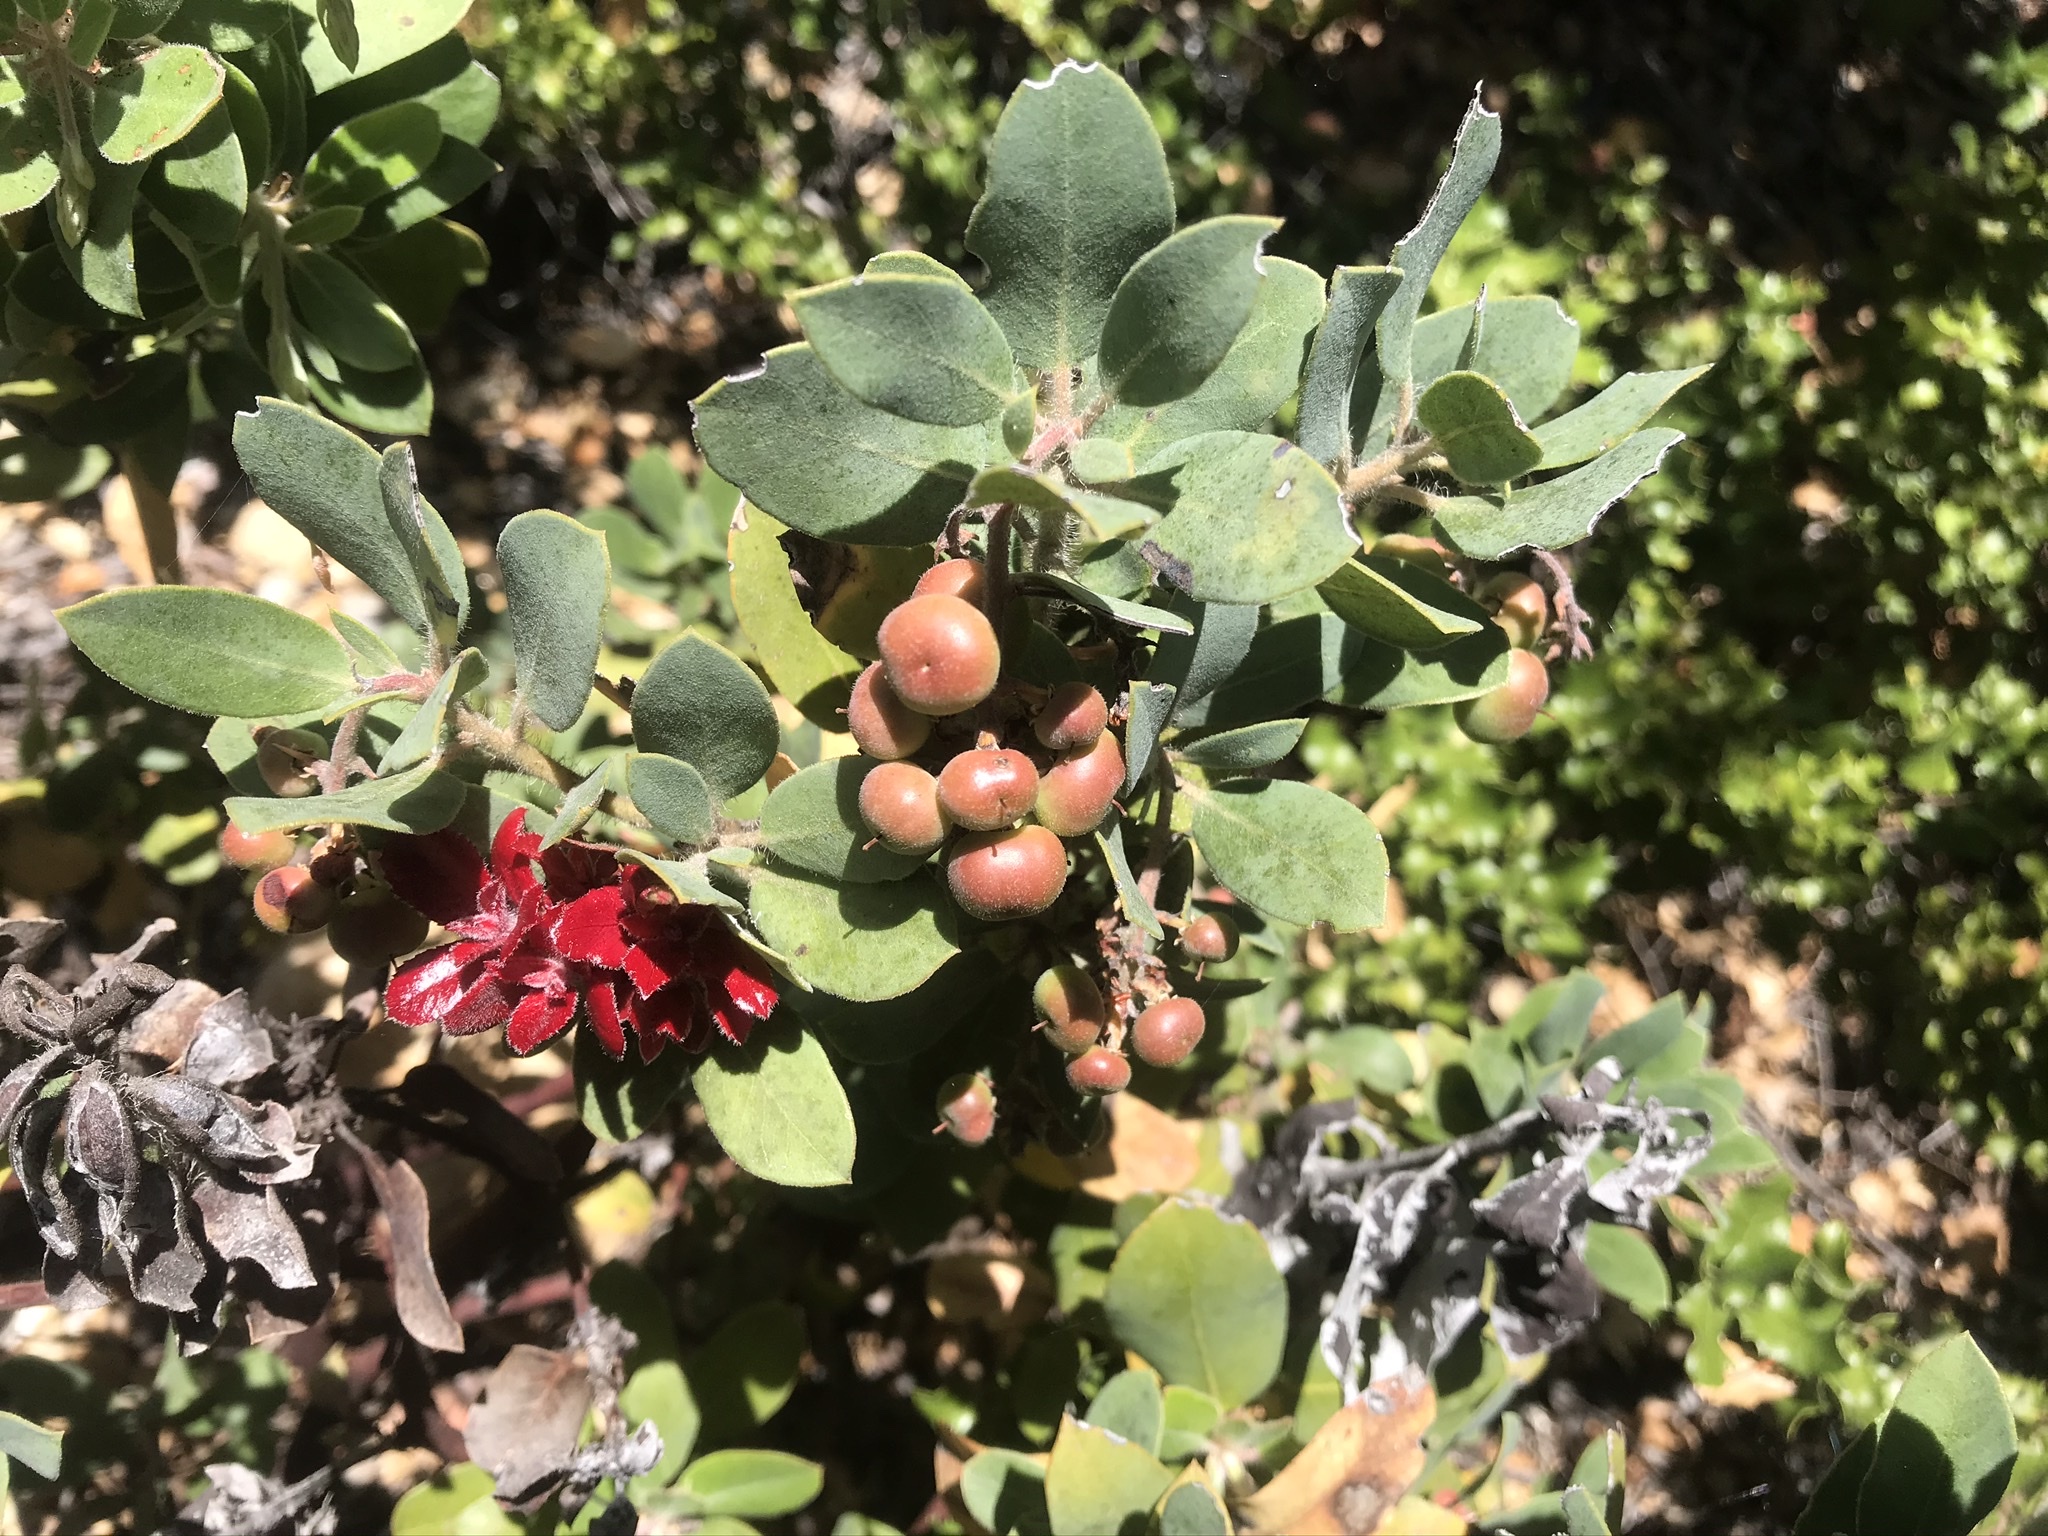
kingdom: Plantae
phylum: Tracheophyta
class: Magnoliopsida
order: Ericales
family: Ericaceae
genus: Arctostaphylos
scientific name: Arctostaphylos crustacea
